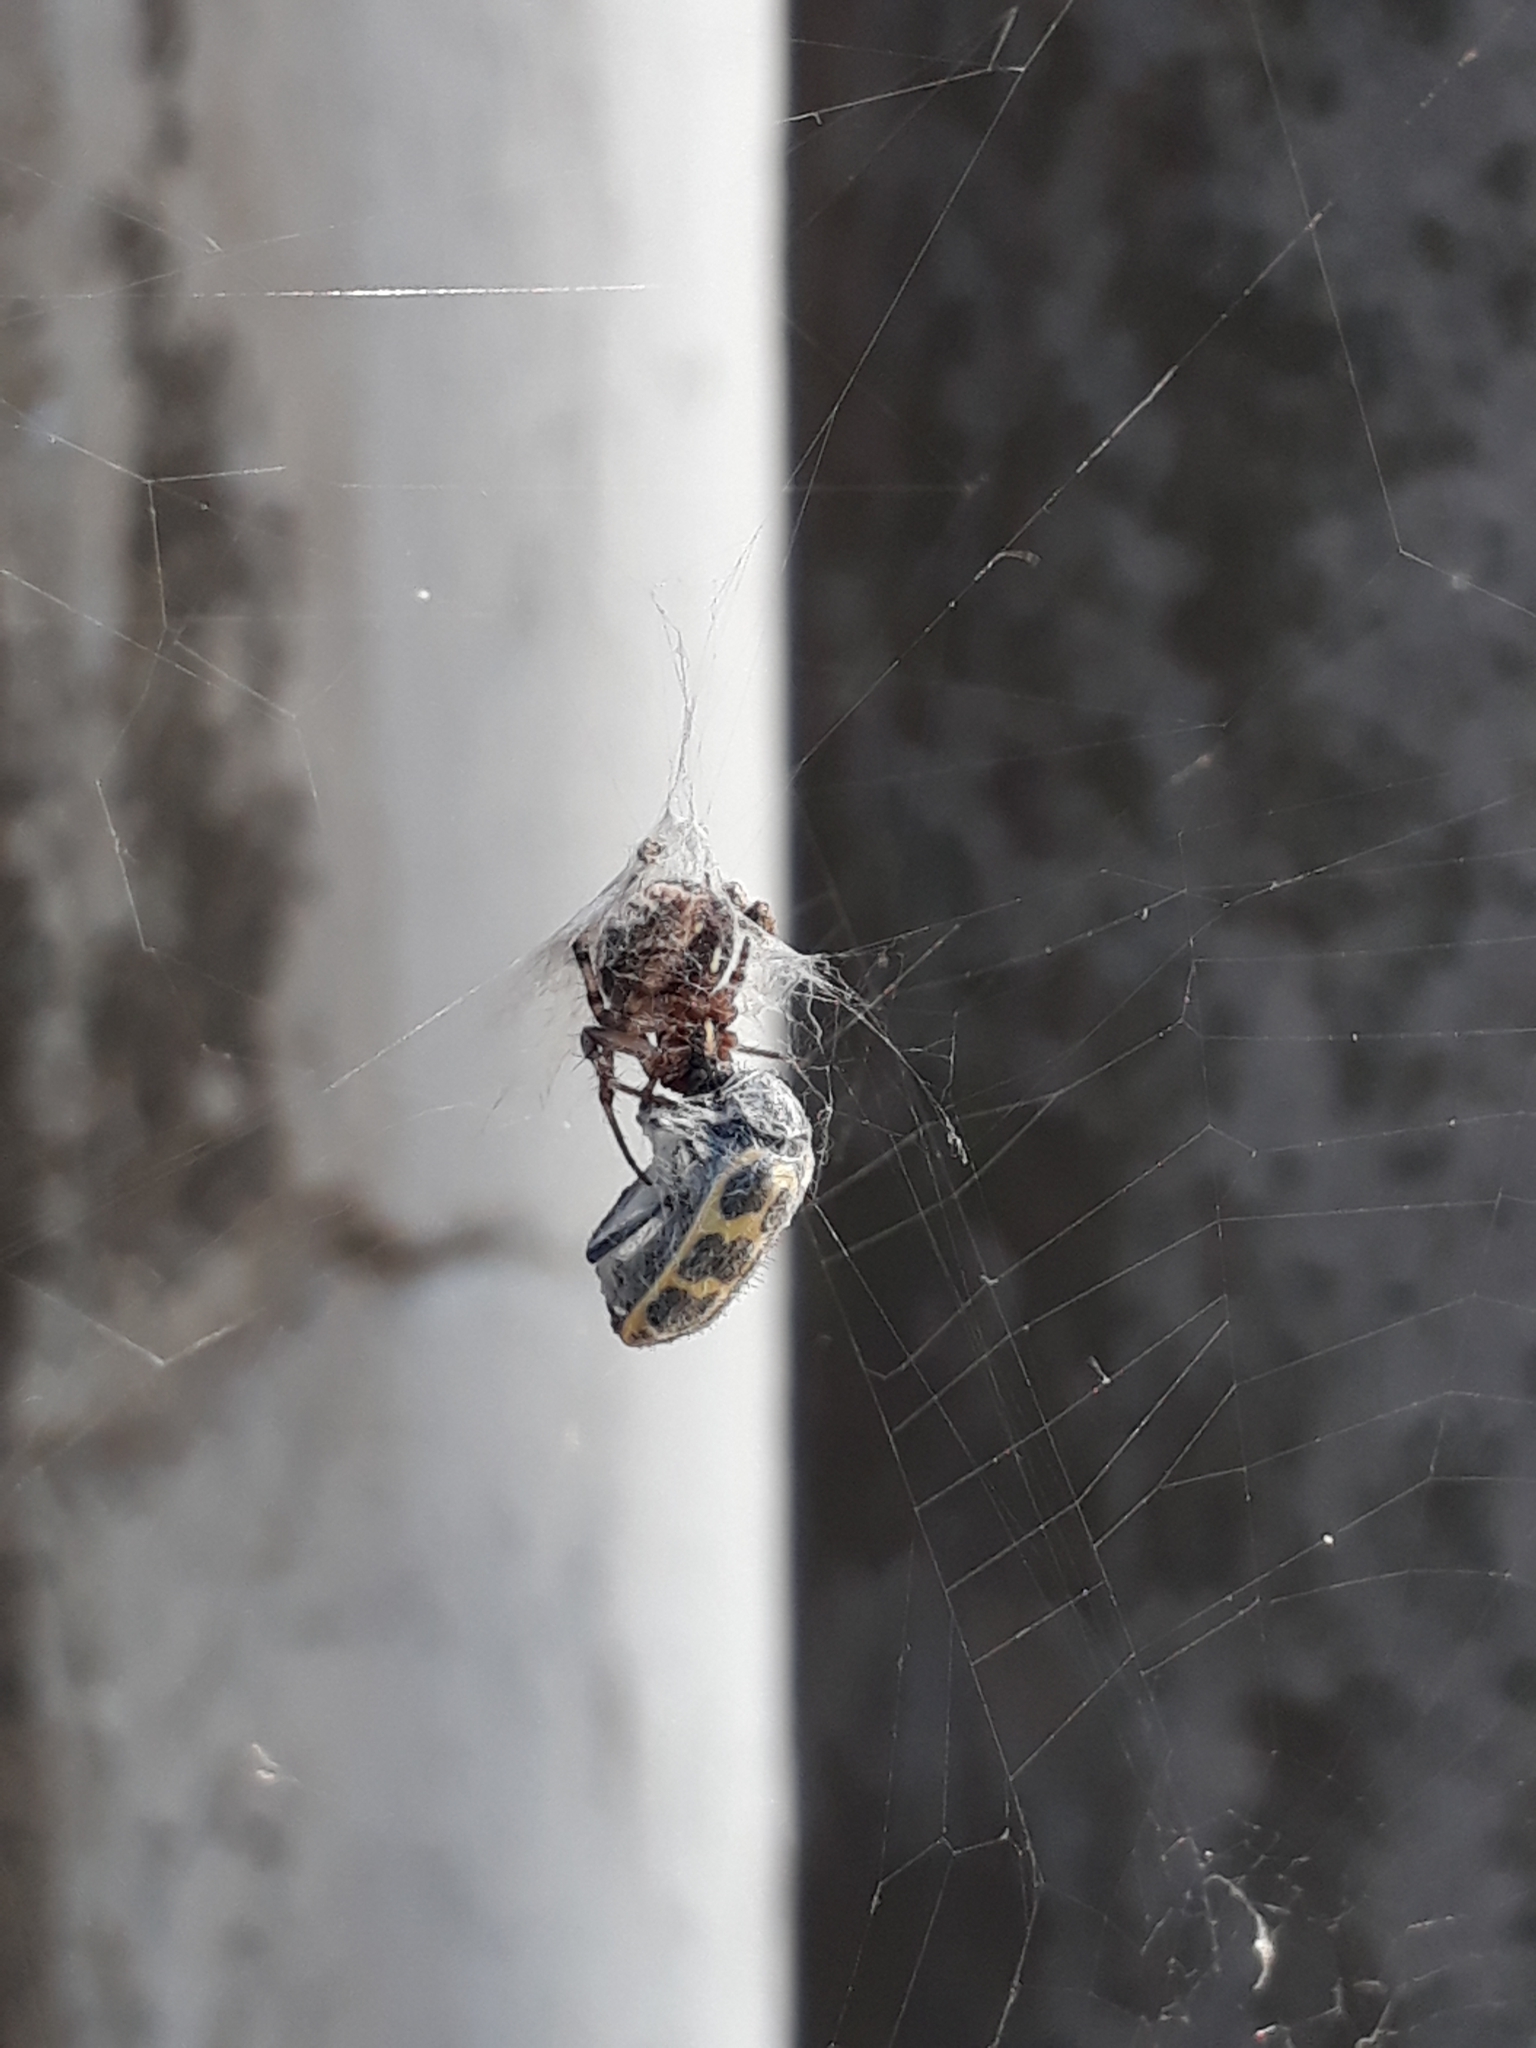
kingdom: Animalia
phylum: Arthropoda
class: Arachnida
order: Araneae
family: Araneidae
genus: Metepeira
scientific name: Metepeira
